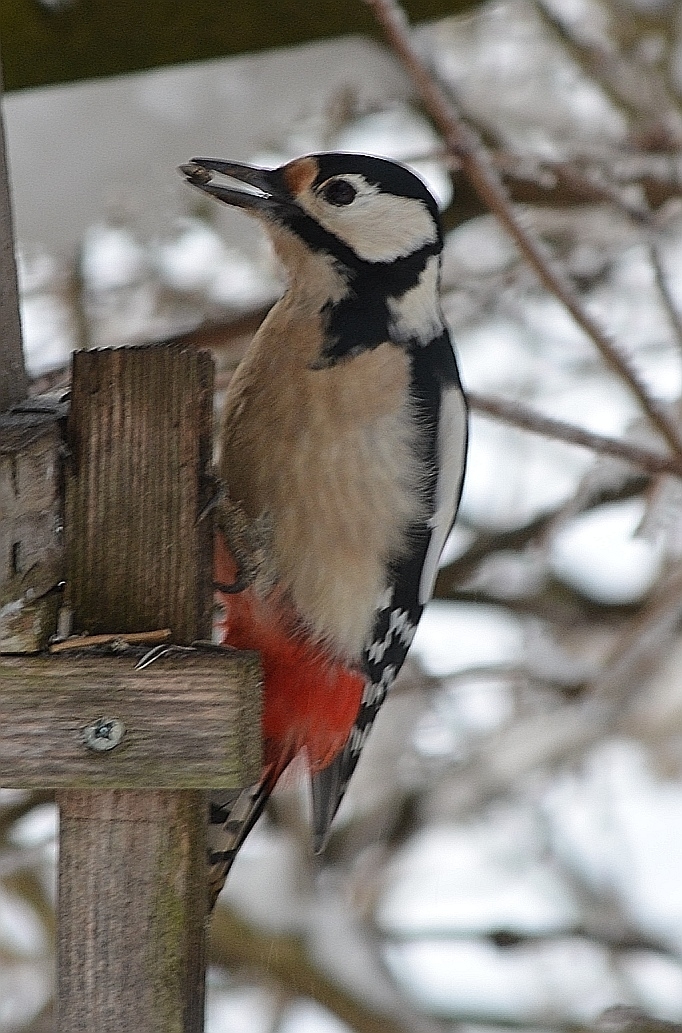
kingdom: Animalia
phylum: Chordata
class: Aves
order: Piciformes
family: Picidae
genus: Dendrocopos
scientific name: Dendrocopos major
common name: Great spotted woodpecker
